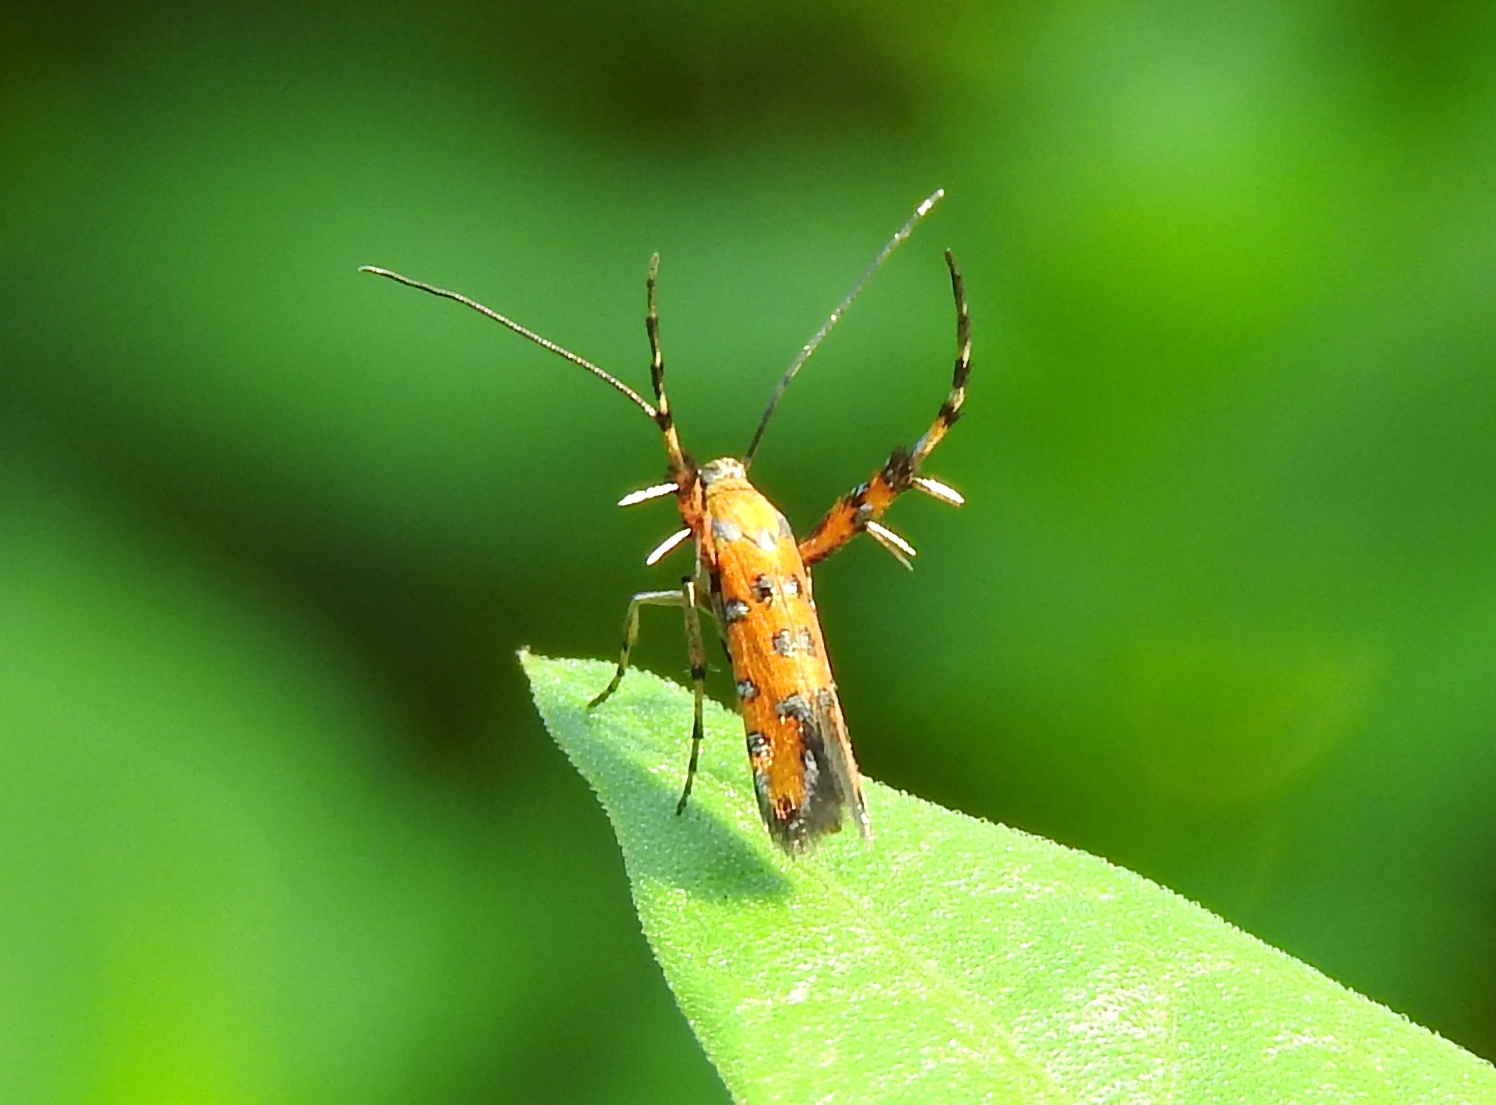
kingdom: Animalia
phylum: Arthropoda
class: Insecta
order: Lepidoptera
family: Heliodinidae
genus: Heliodines
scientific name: Heliodines
